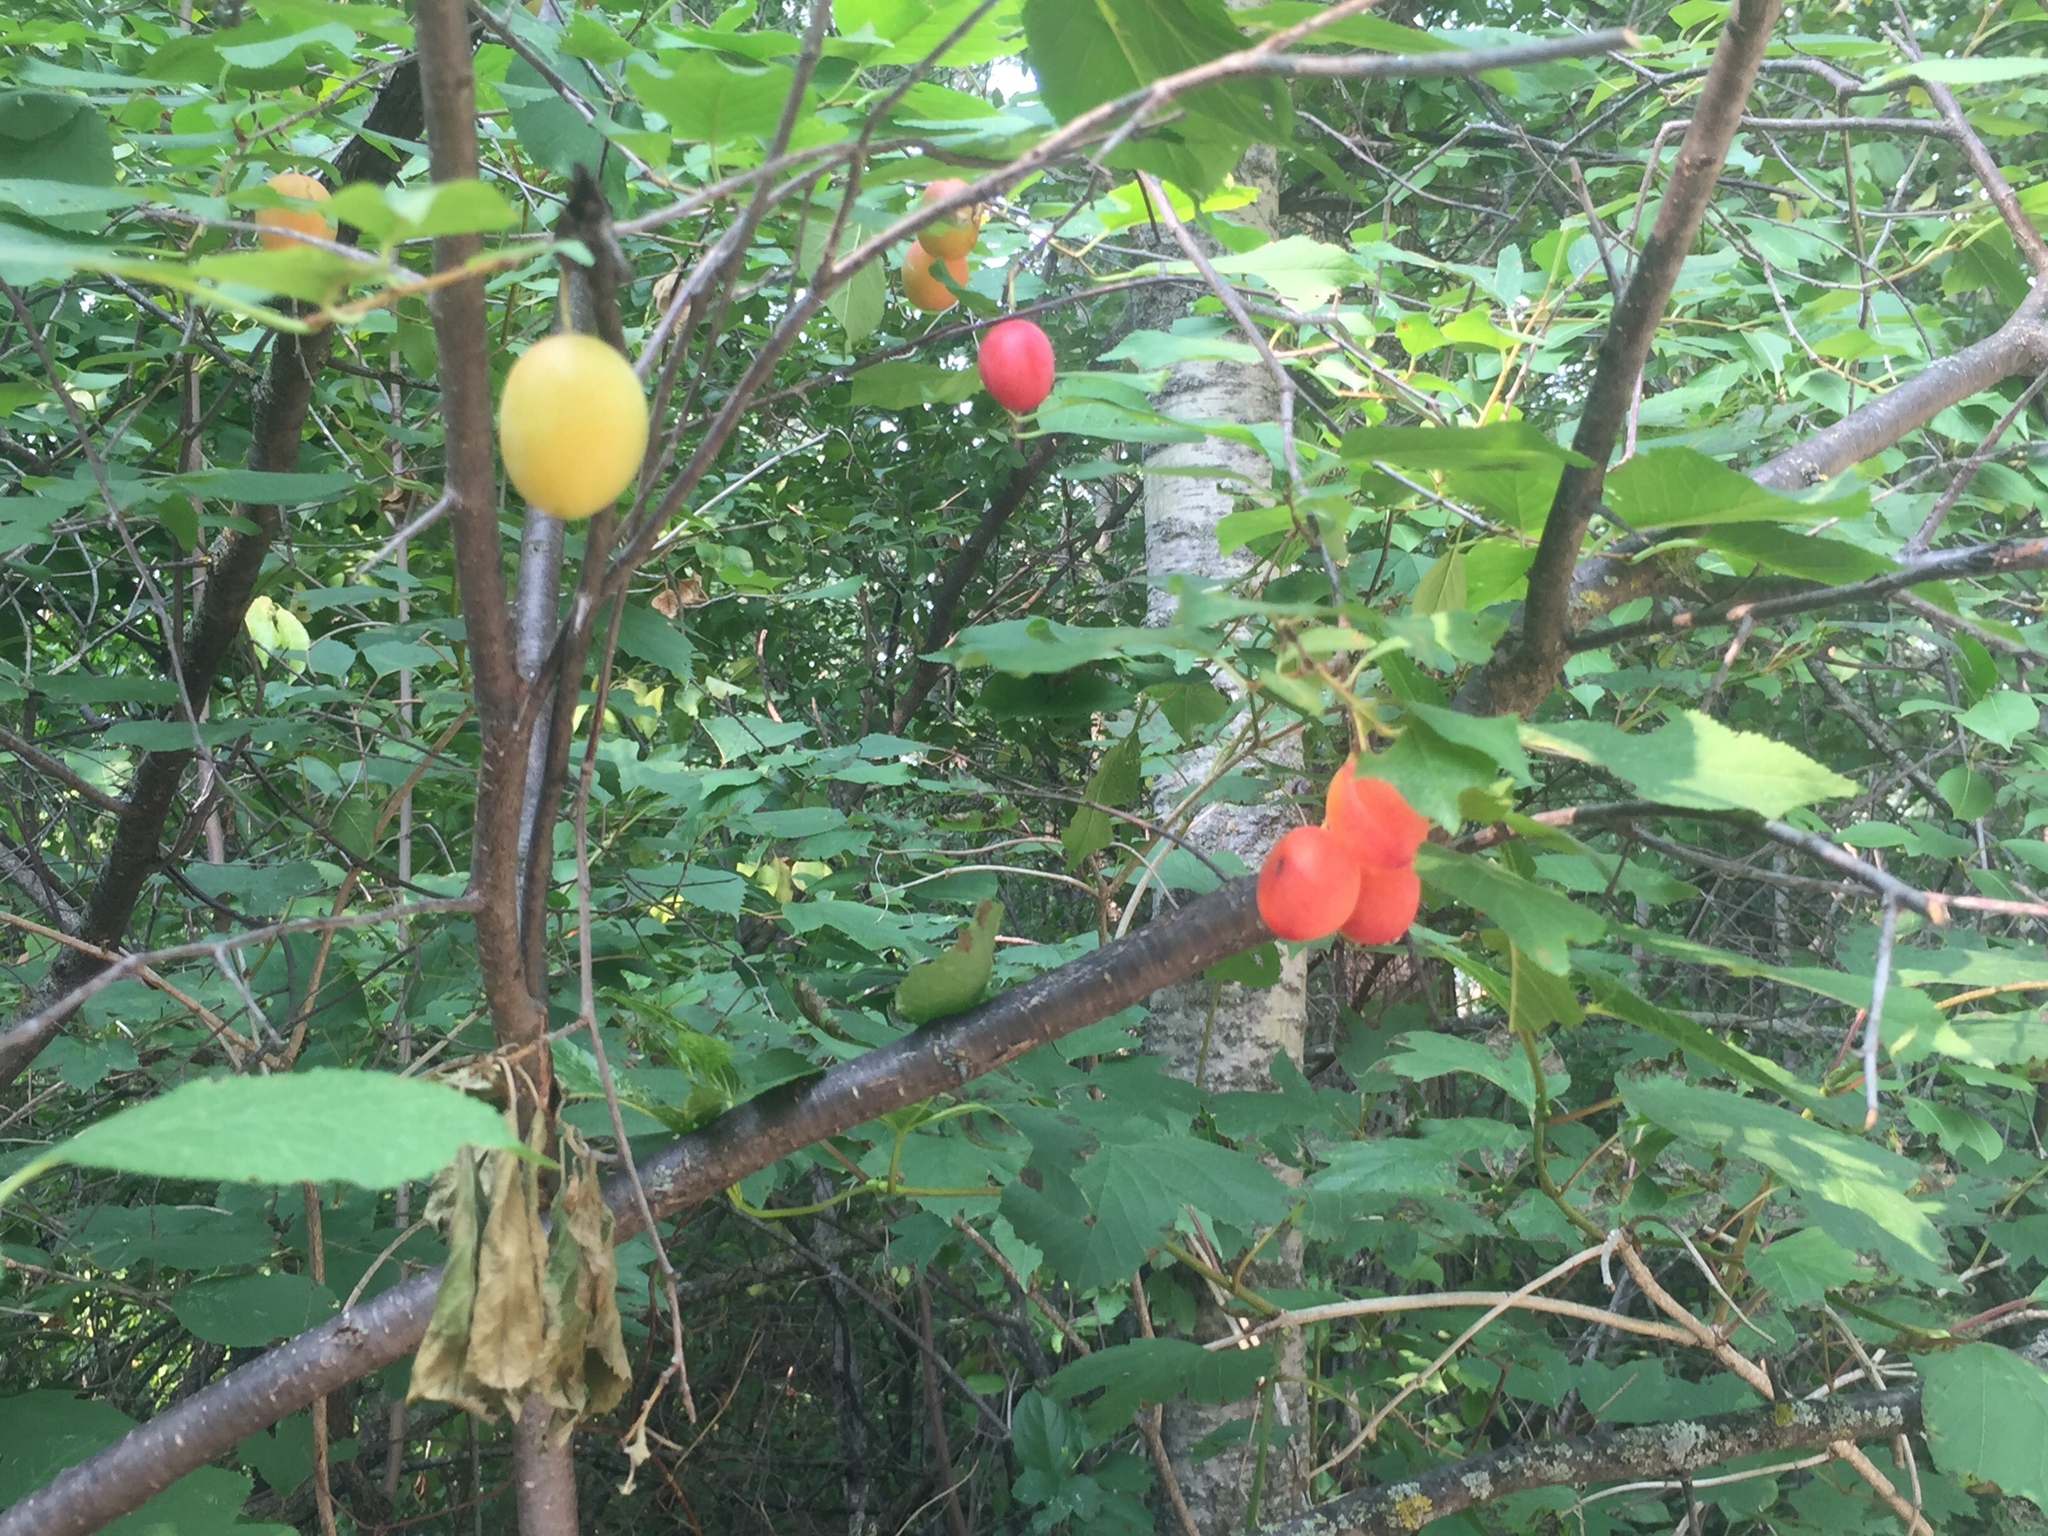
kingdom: Plantae
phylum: Tracheophyta
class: Magnoliopsida
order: Rosales
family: Rosaceae
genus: Prunus
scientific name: Prunus nigra
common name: Black plum
